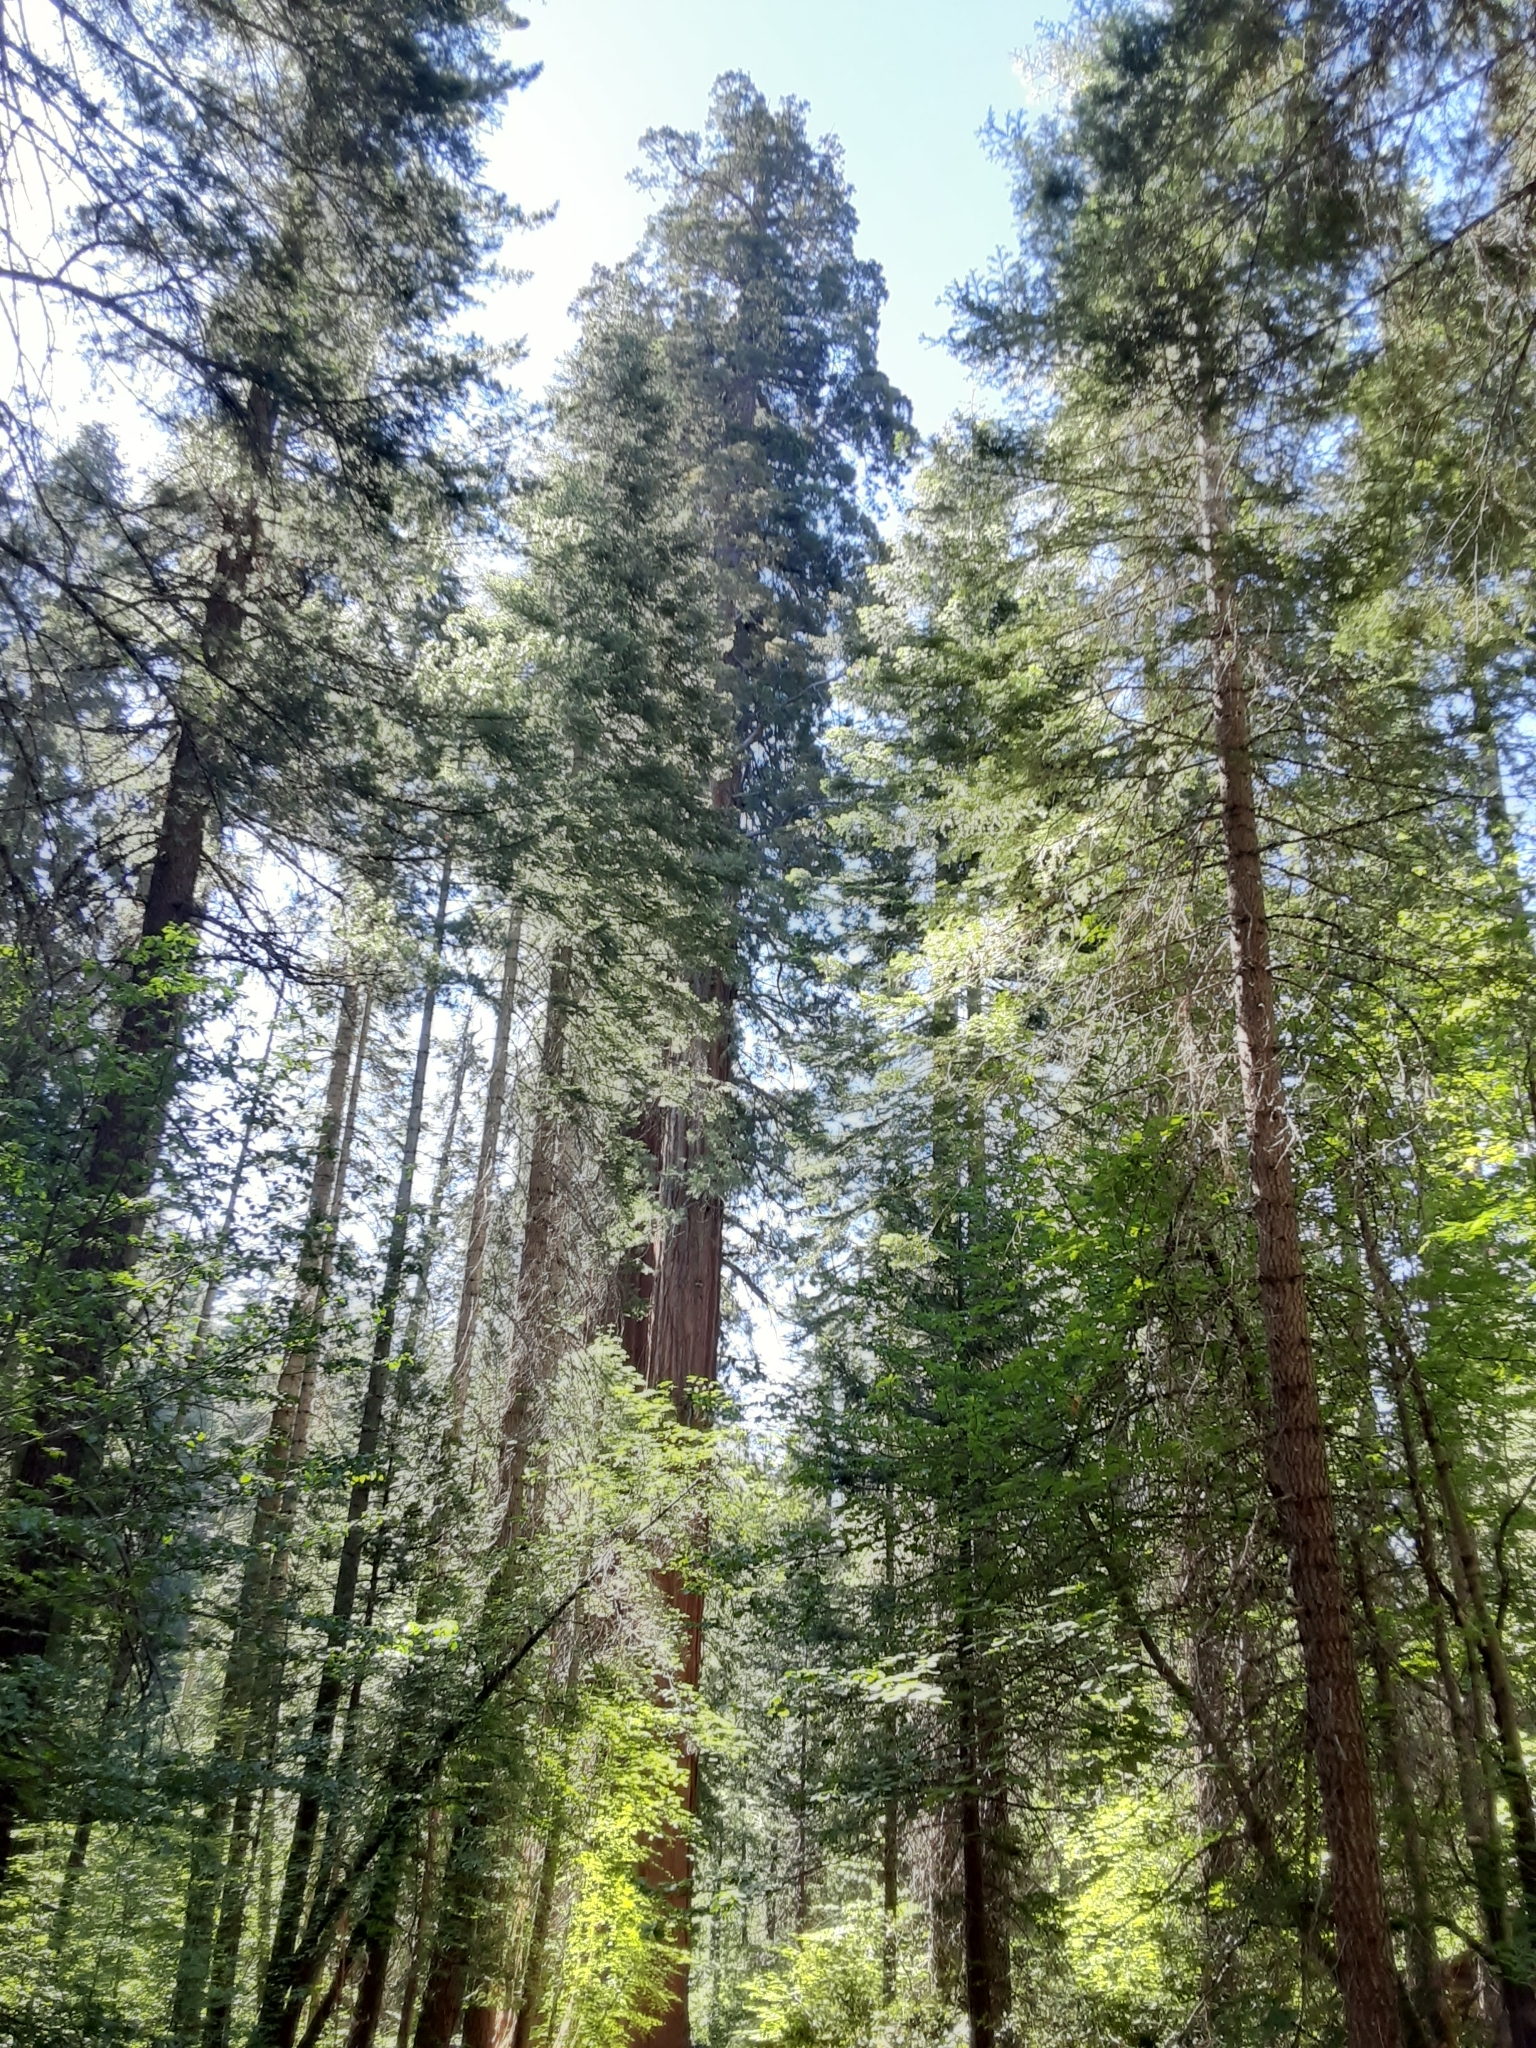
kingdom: Plantae
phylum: Tracheophyta
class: Pinopsida
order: Pinales
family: Cupressaceae
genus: Sequoiadendron
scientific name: Sequoiadendron giganteum
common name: Wellingtonia
